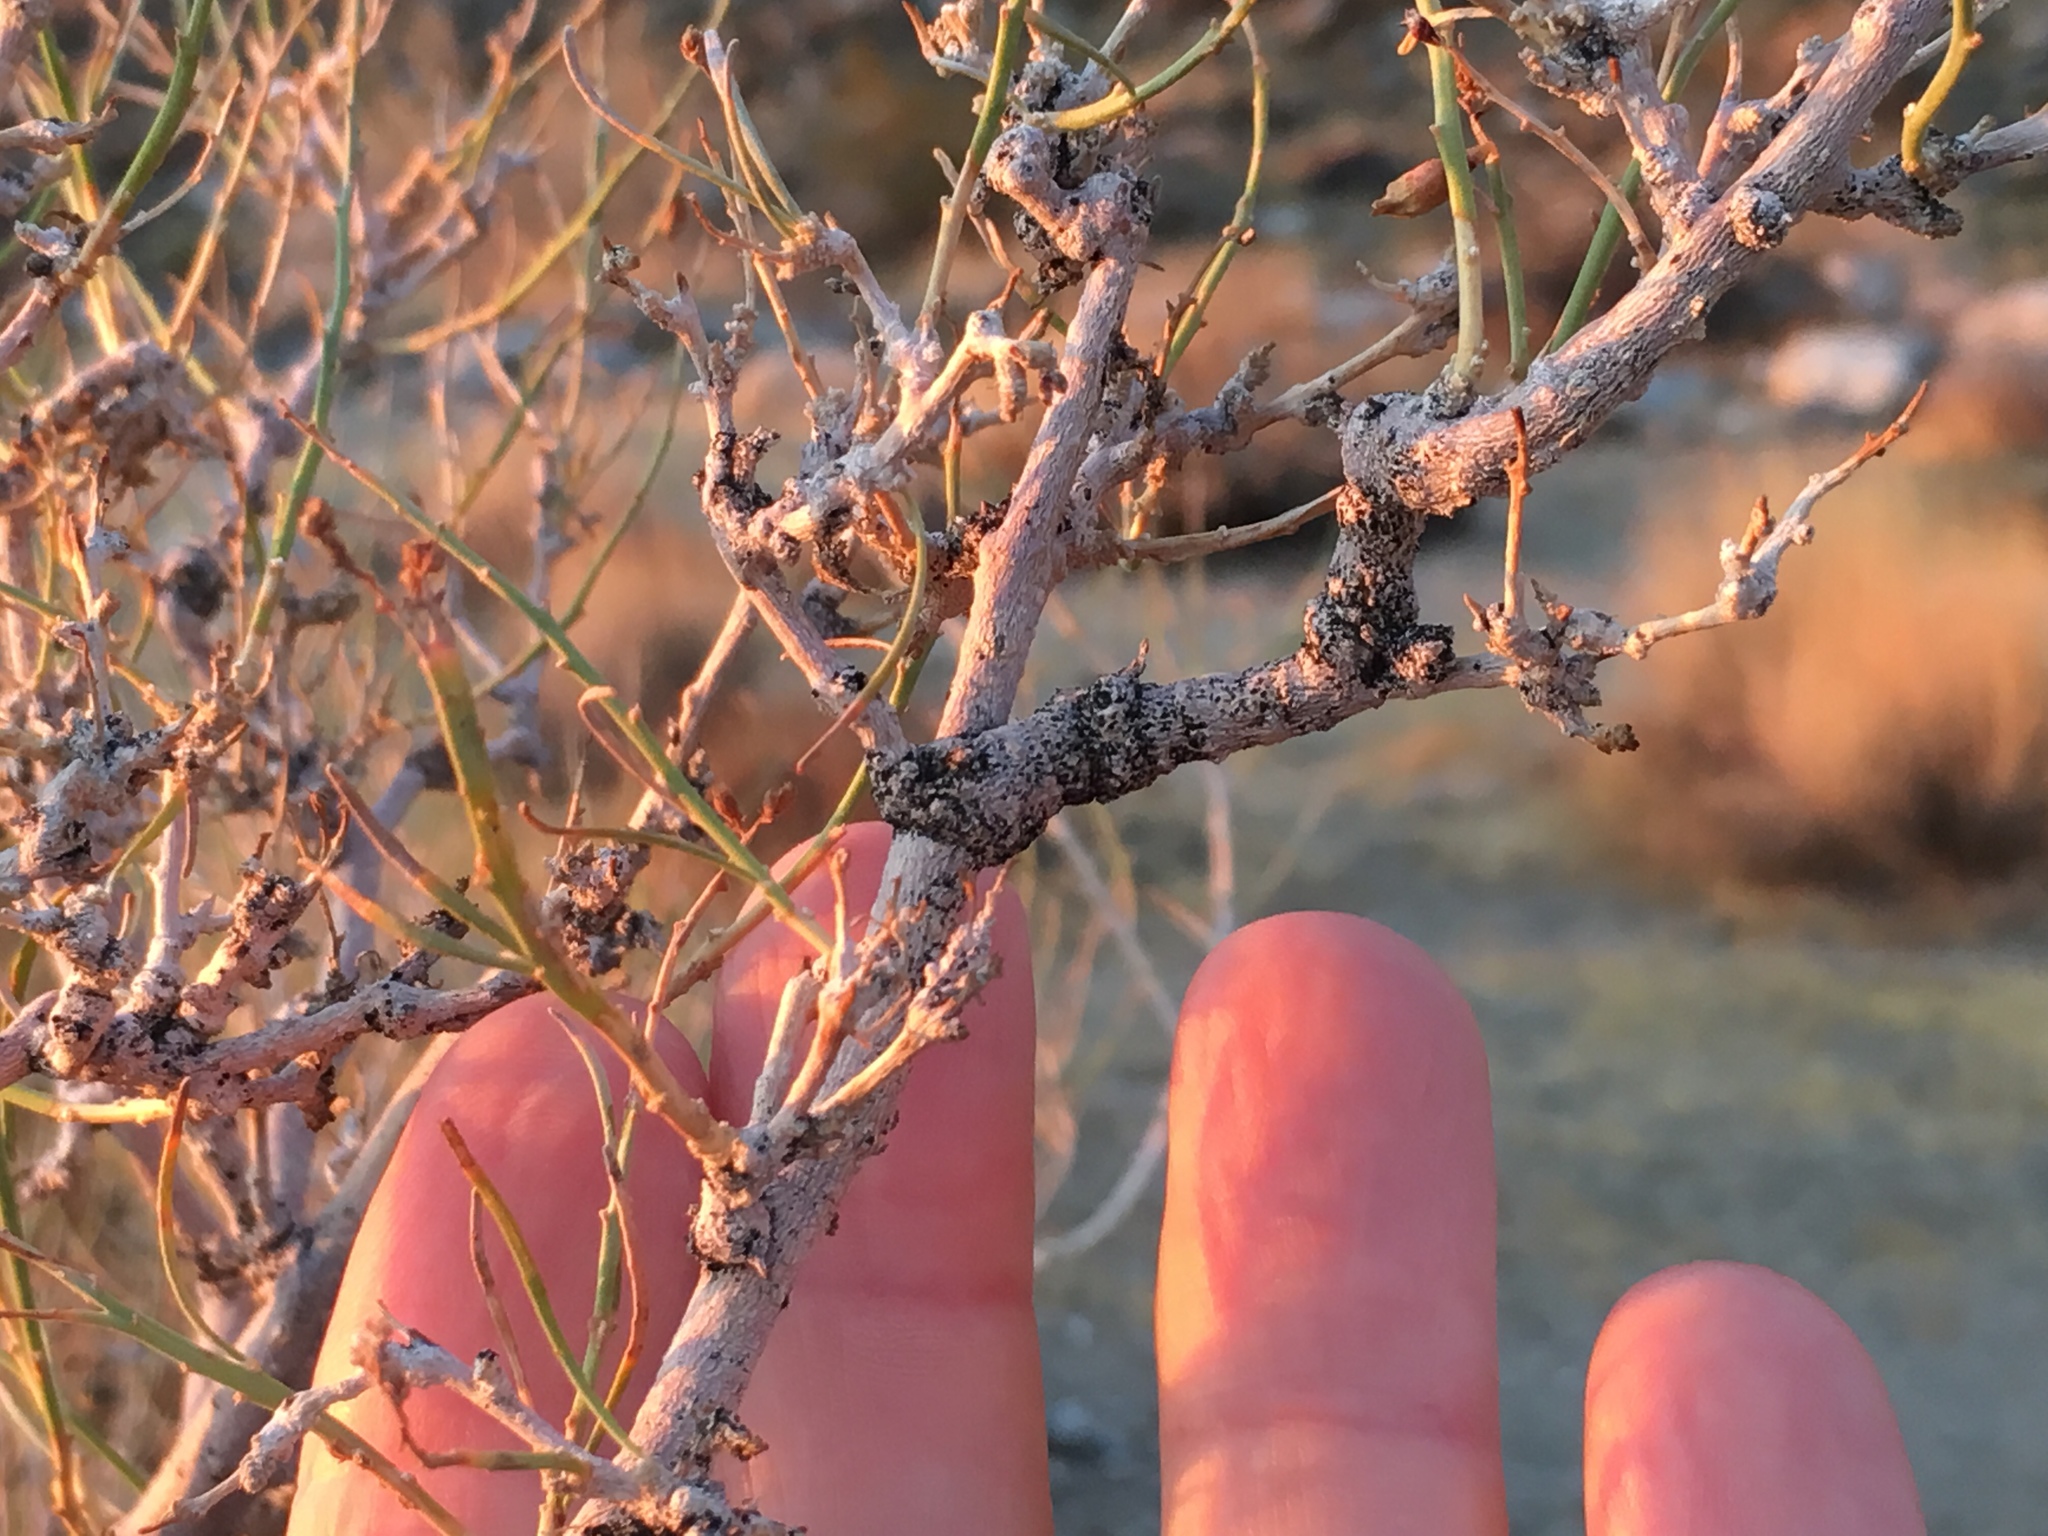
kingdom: Plantae
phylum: Tracheophyta
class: Magnoliopsida
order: Fabales
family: Fabaceae
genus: Psorothamnus
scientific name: Psorothamnus schottii
